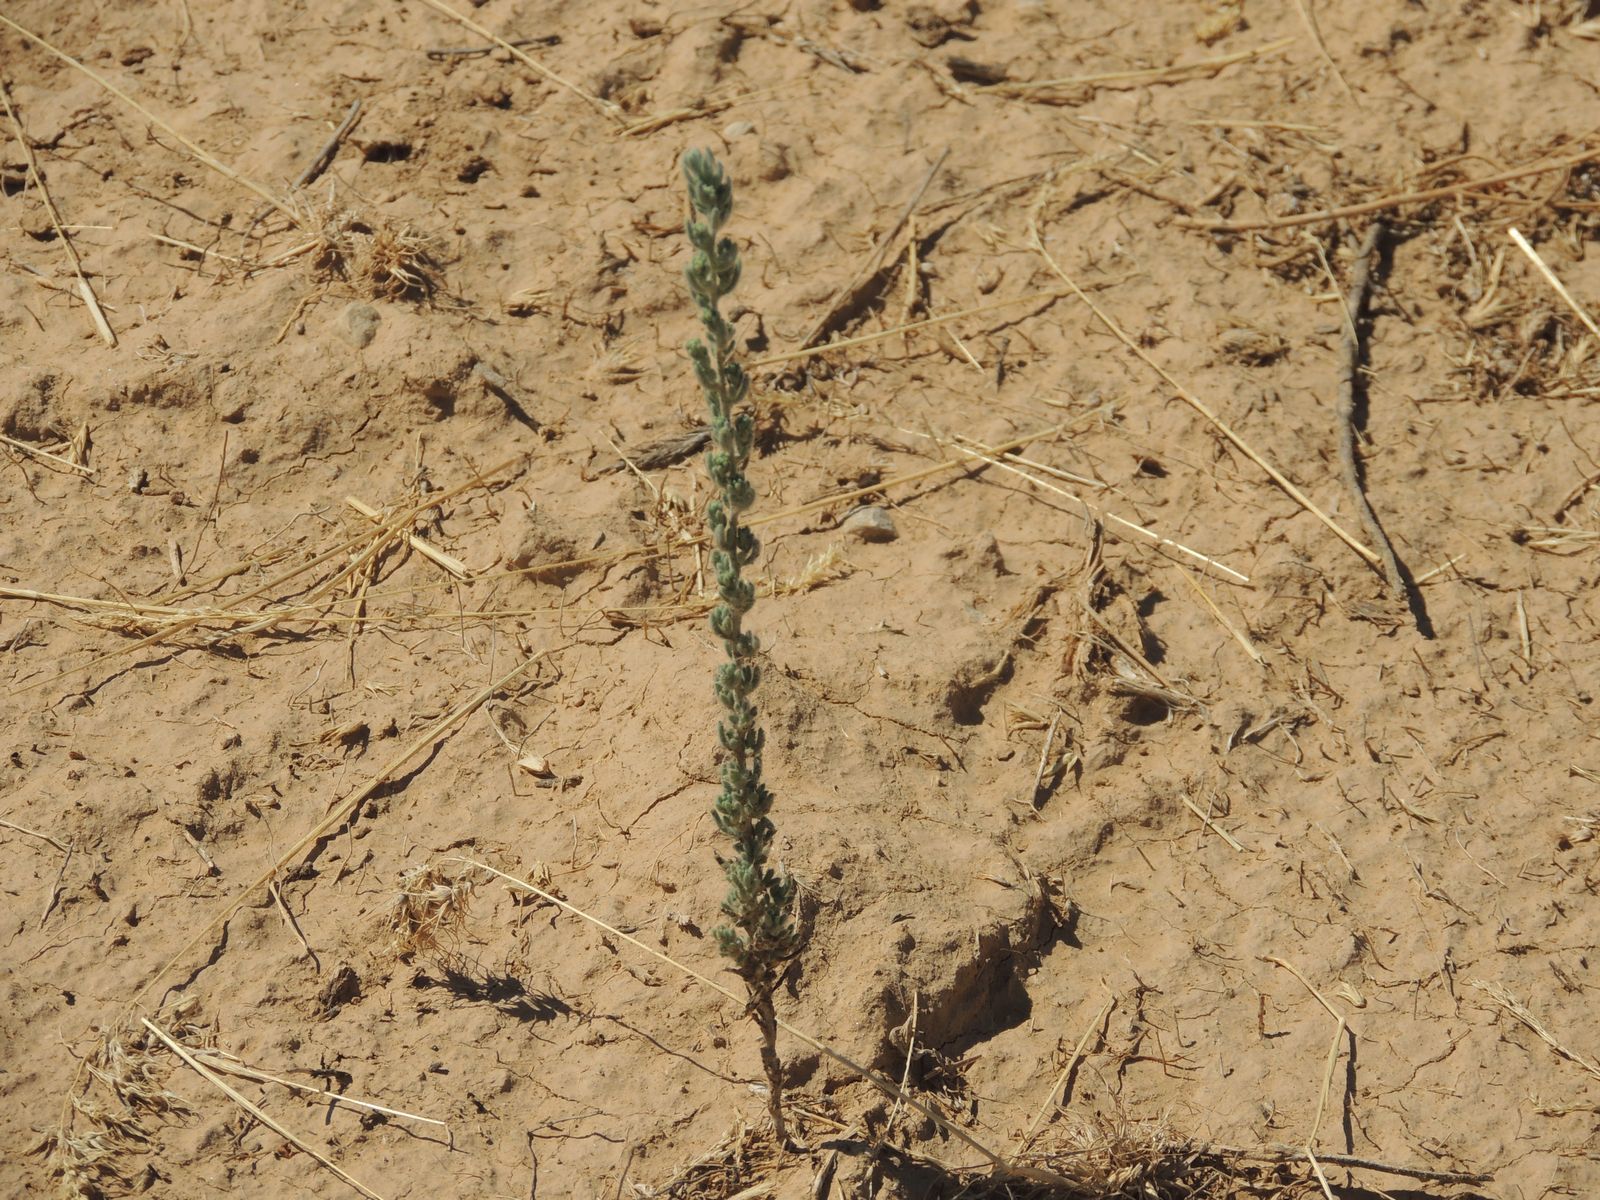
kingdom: Plantae
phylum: Tracheophyta
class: Magnoliopsida
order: Caryophyllales
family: Amaranthaceae
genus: Sedobassia
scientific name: Sedobassia sedoides
